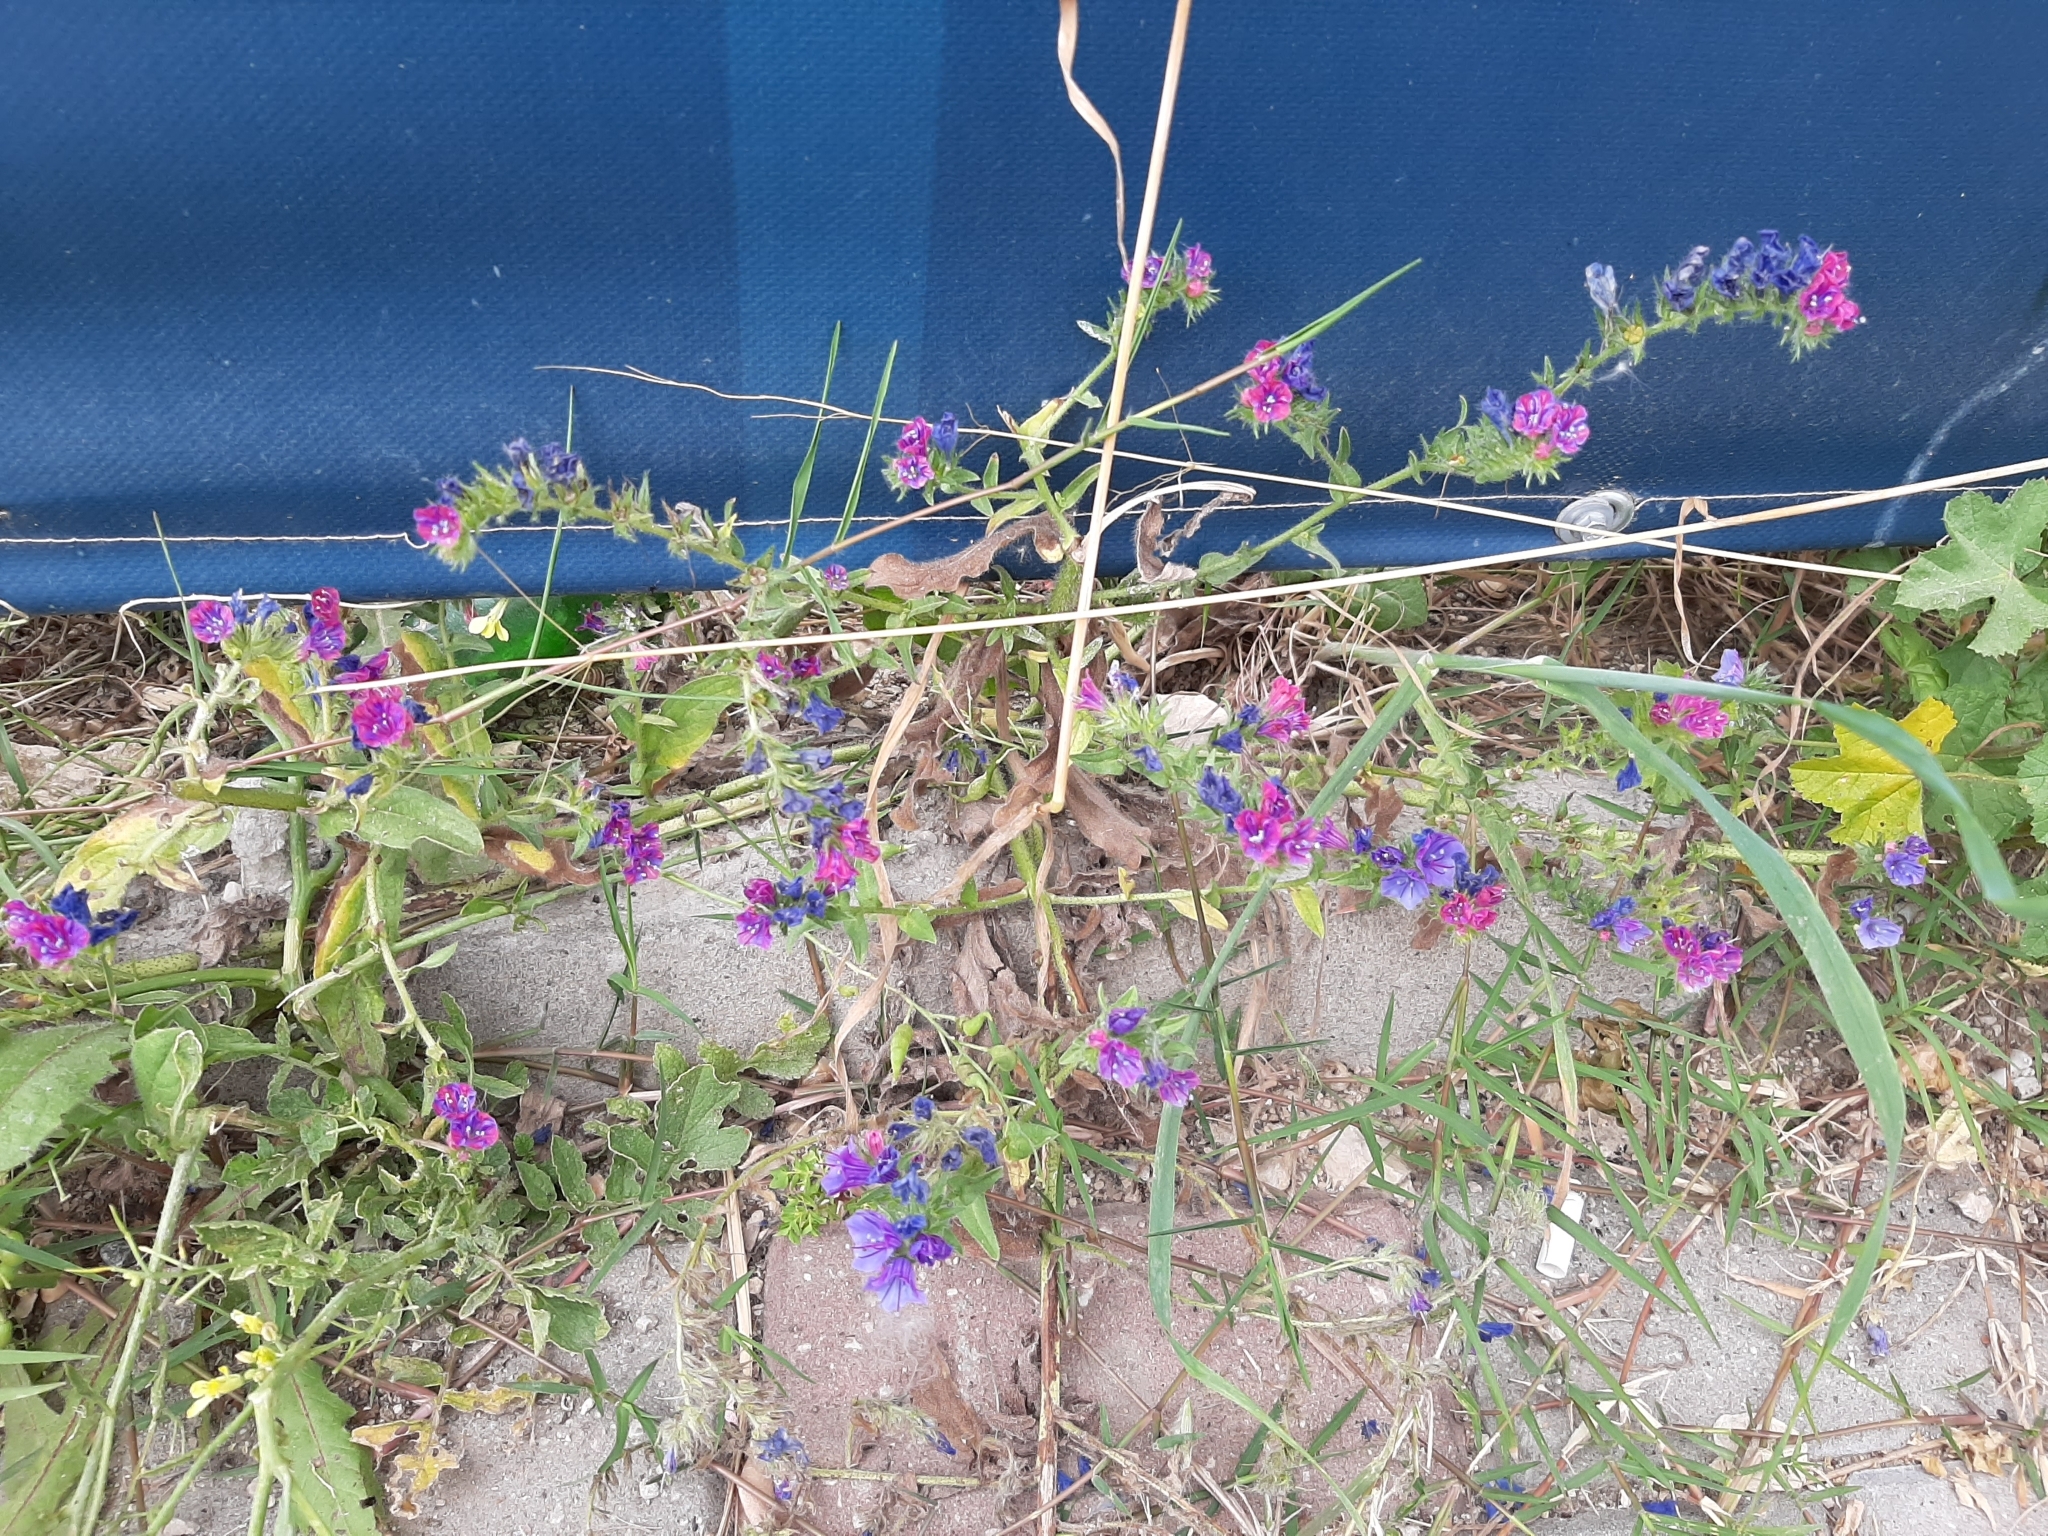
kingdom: Plantae
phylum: Tracheophyta
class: Magnoliopsida
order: Boraginales
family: Boraginaceae
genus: Echium
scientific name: Echium plantagineum
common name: Purple viper's-bugloss
